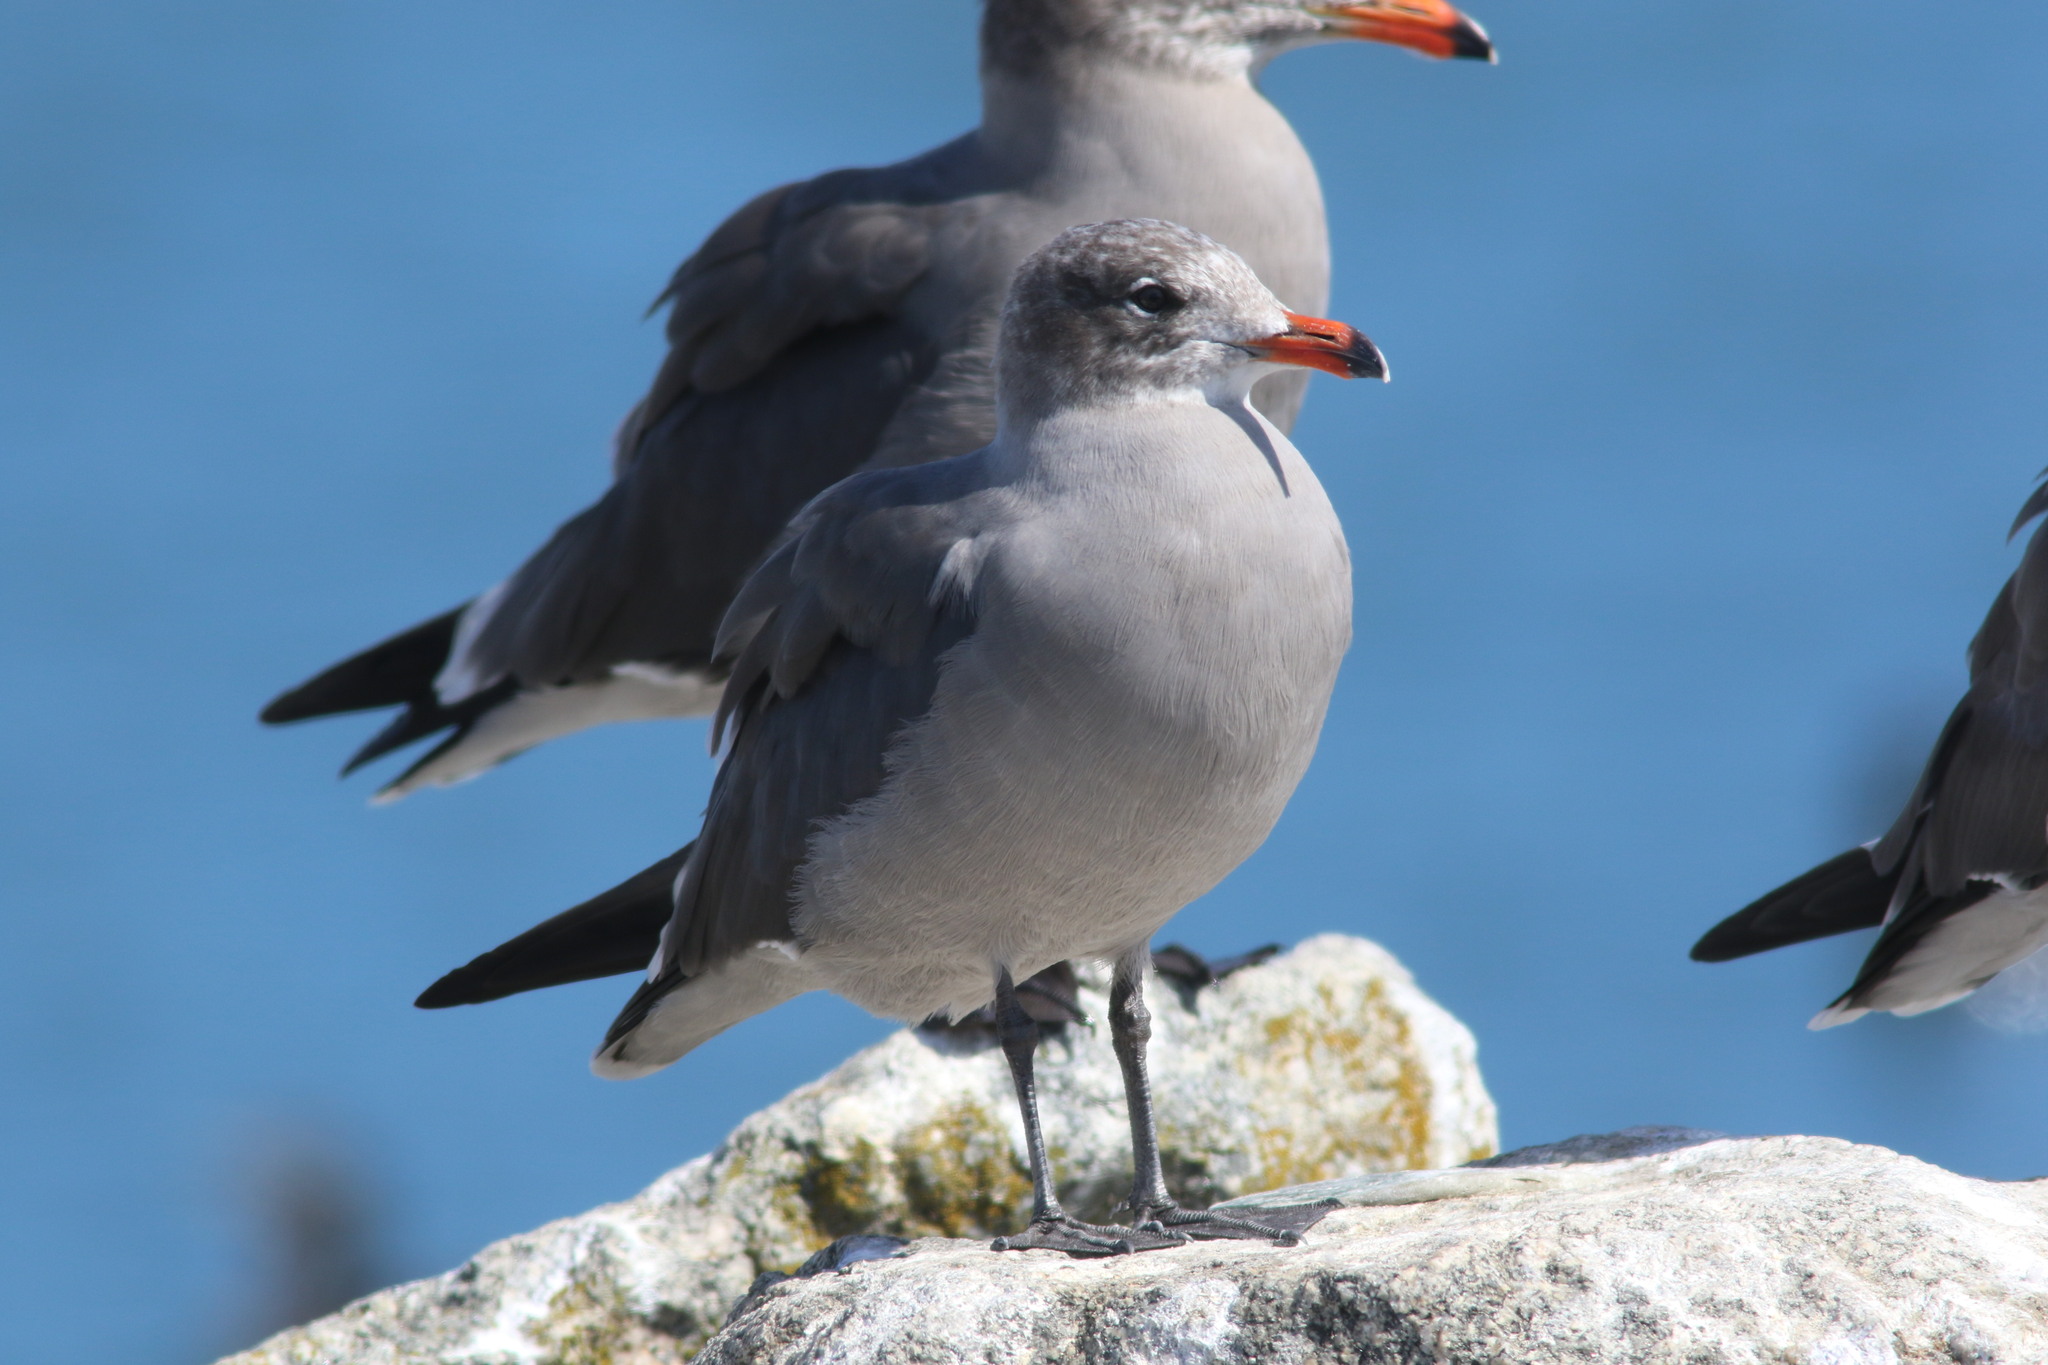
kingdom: Animalia
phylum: Chordata
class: Aves
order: Charadriiformes
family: Laridae
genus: Larus
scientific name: Larus heermanni
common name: Heermann's gull
